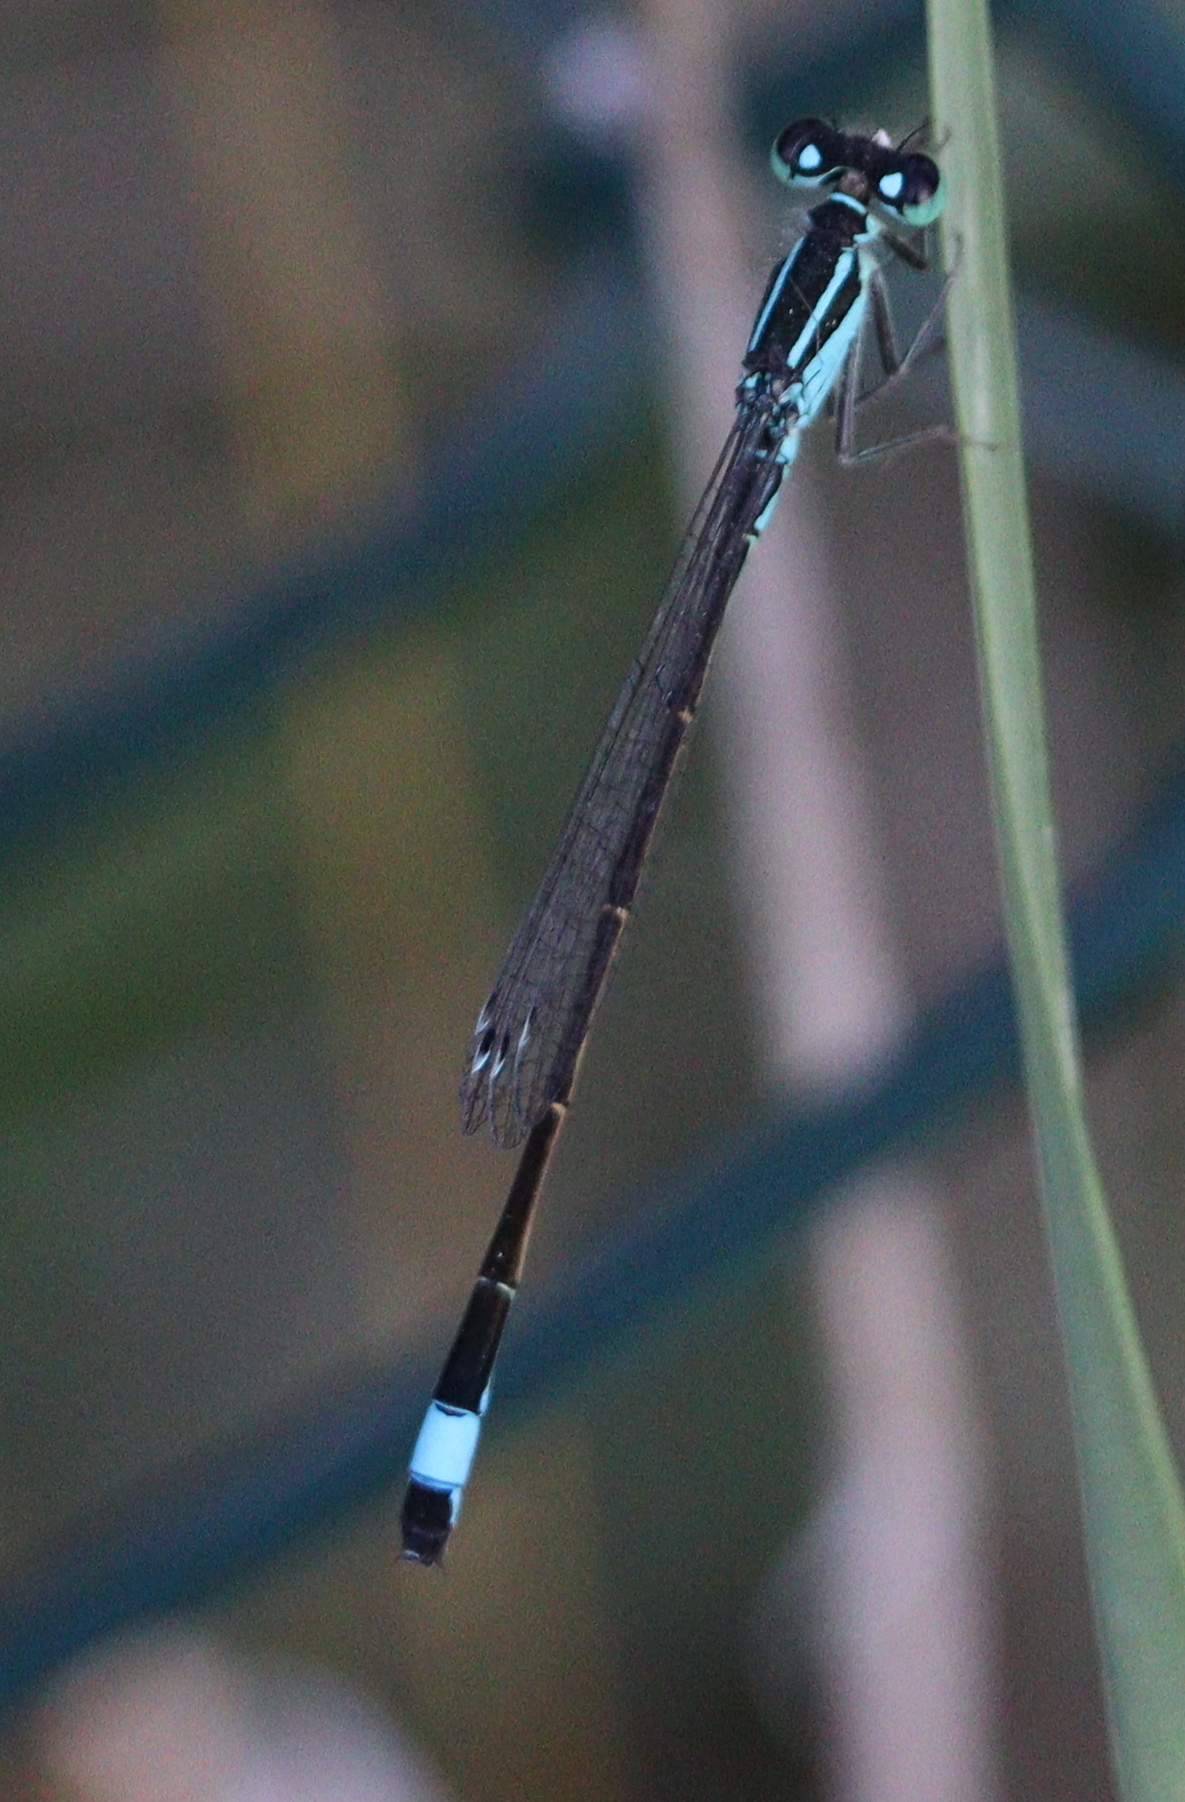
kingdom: Animalia
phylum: Arthropoda
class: Insecta
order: Odonata
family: Coenagrionidae
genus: Ischnura
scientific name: Ischnura elegans
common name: Blue-tailed damselfly
